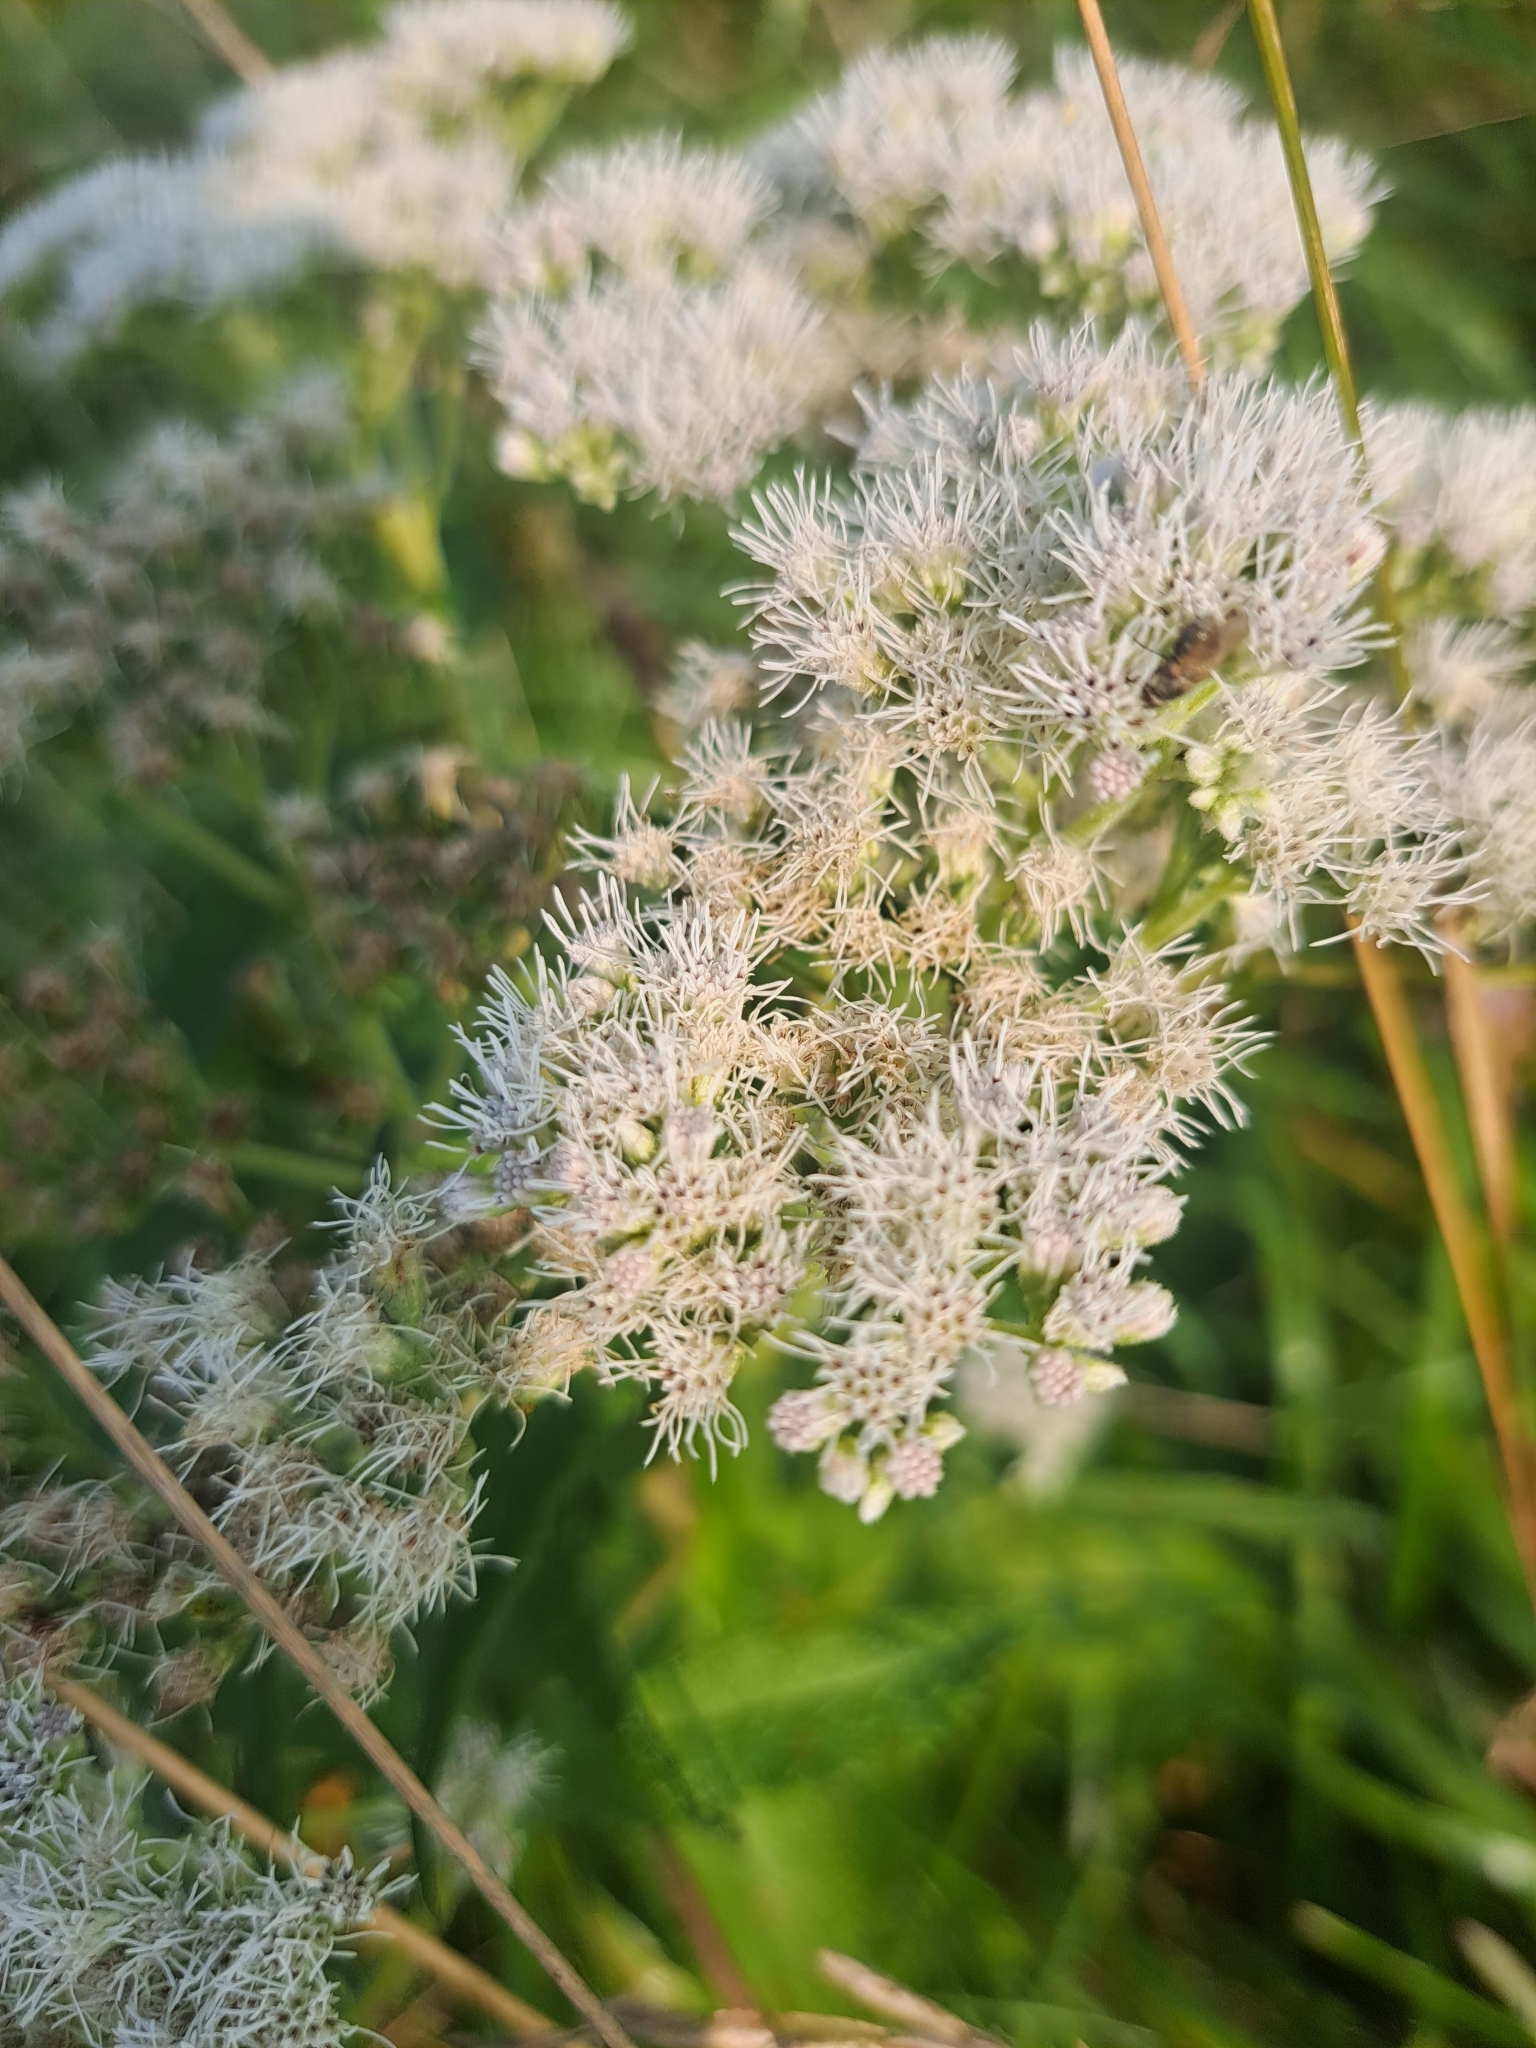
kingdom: Plantae
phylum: Tracheophyta
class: Magnoliopsida
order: Asterales
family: Asteraceae
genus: Eupatorium
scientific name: Eupatorium perfoliatum
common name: Boneset
